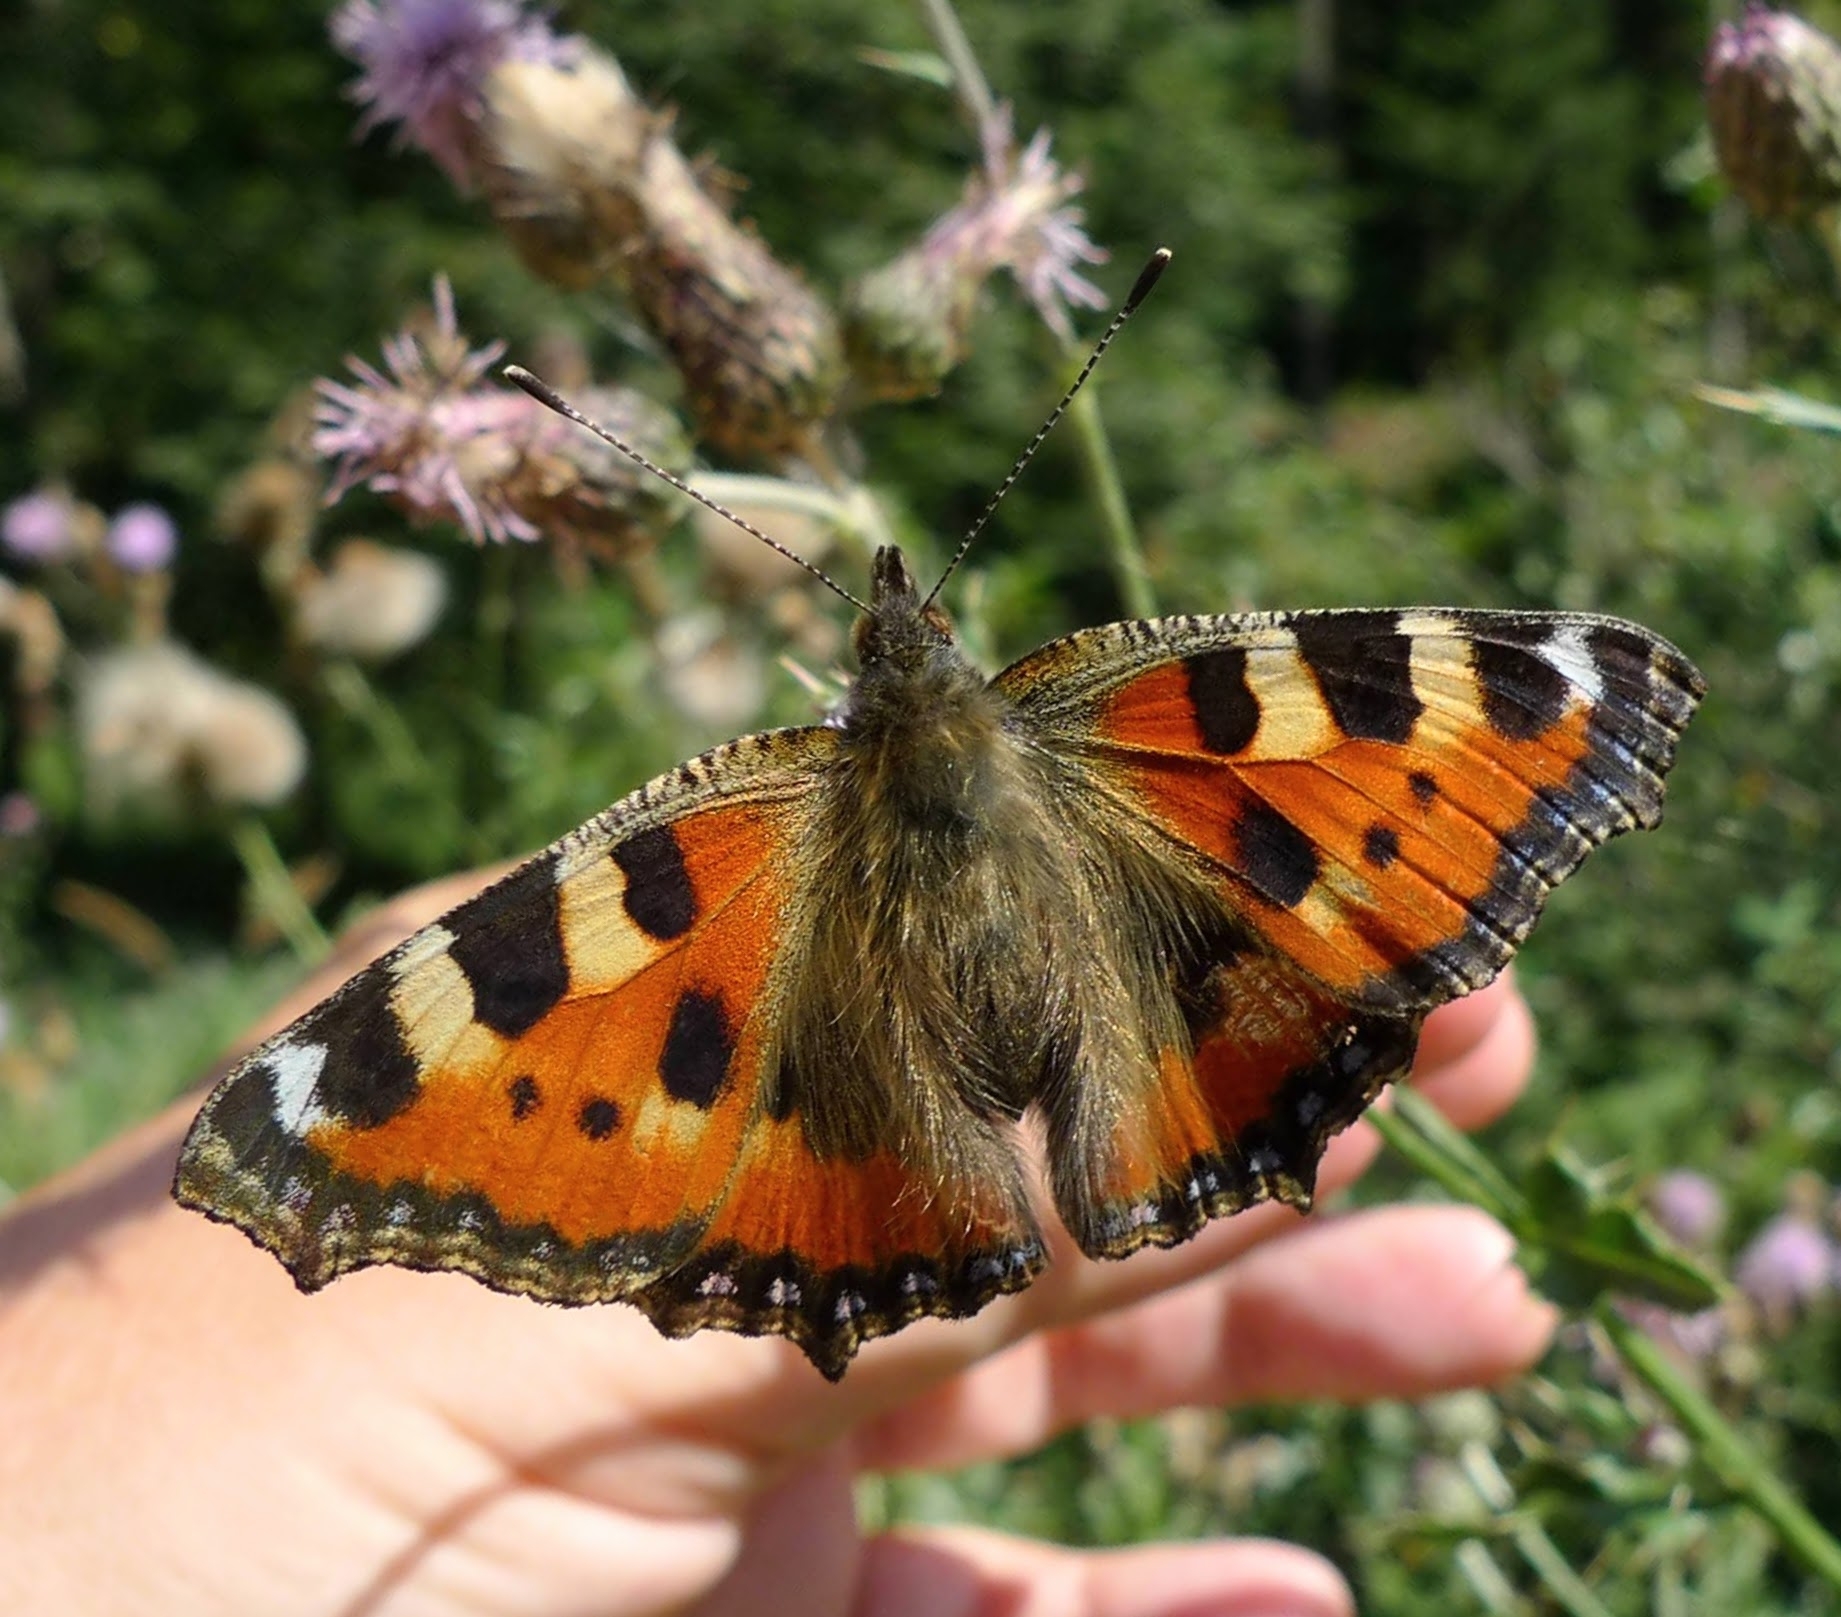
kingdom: Animalia
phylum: Arthropoda
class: Insecta
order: Lepidoptera
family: Nymphalidae
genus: Aglais
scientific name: Aglais urticae
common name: Small tortoiseshell
